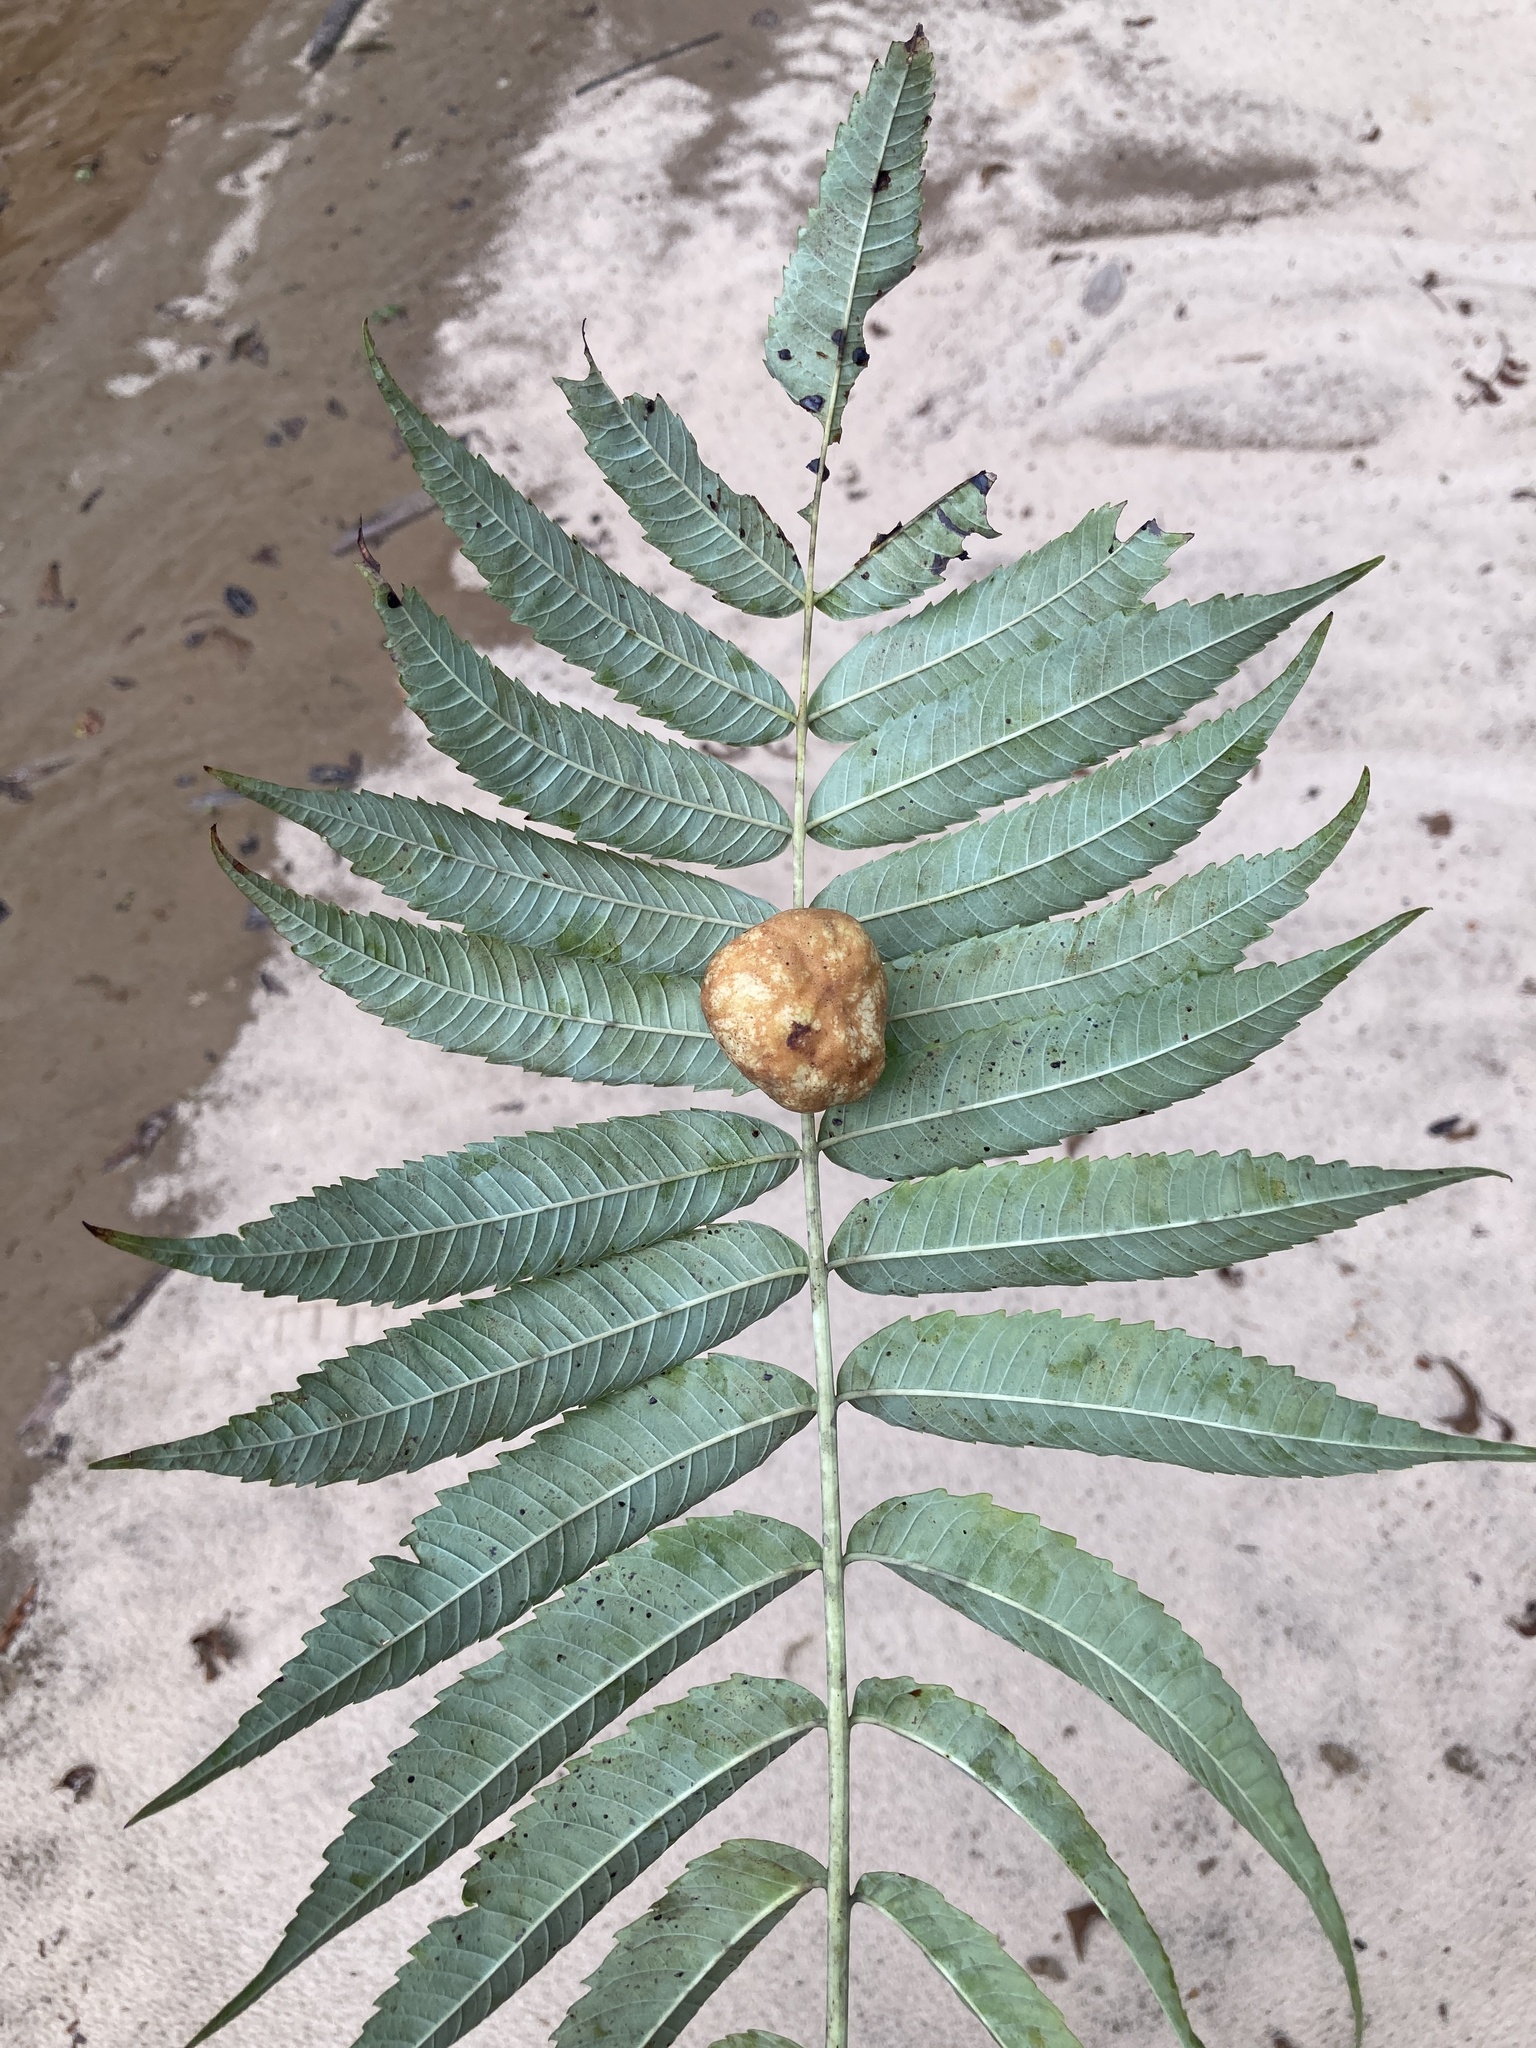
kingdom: Animalia
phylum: Arthropoda
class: Insecta
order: Hemiptera
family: Aphididae
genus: Melaphis
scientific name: Melaphis rhois
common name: Sumac gall aphid
